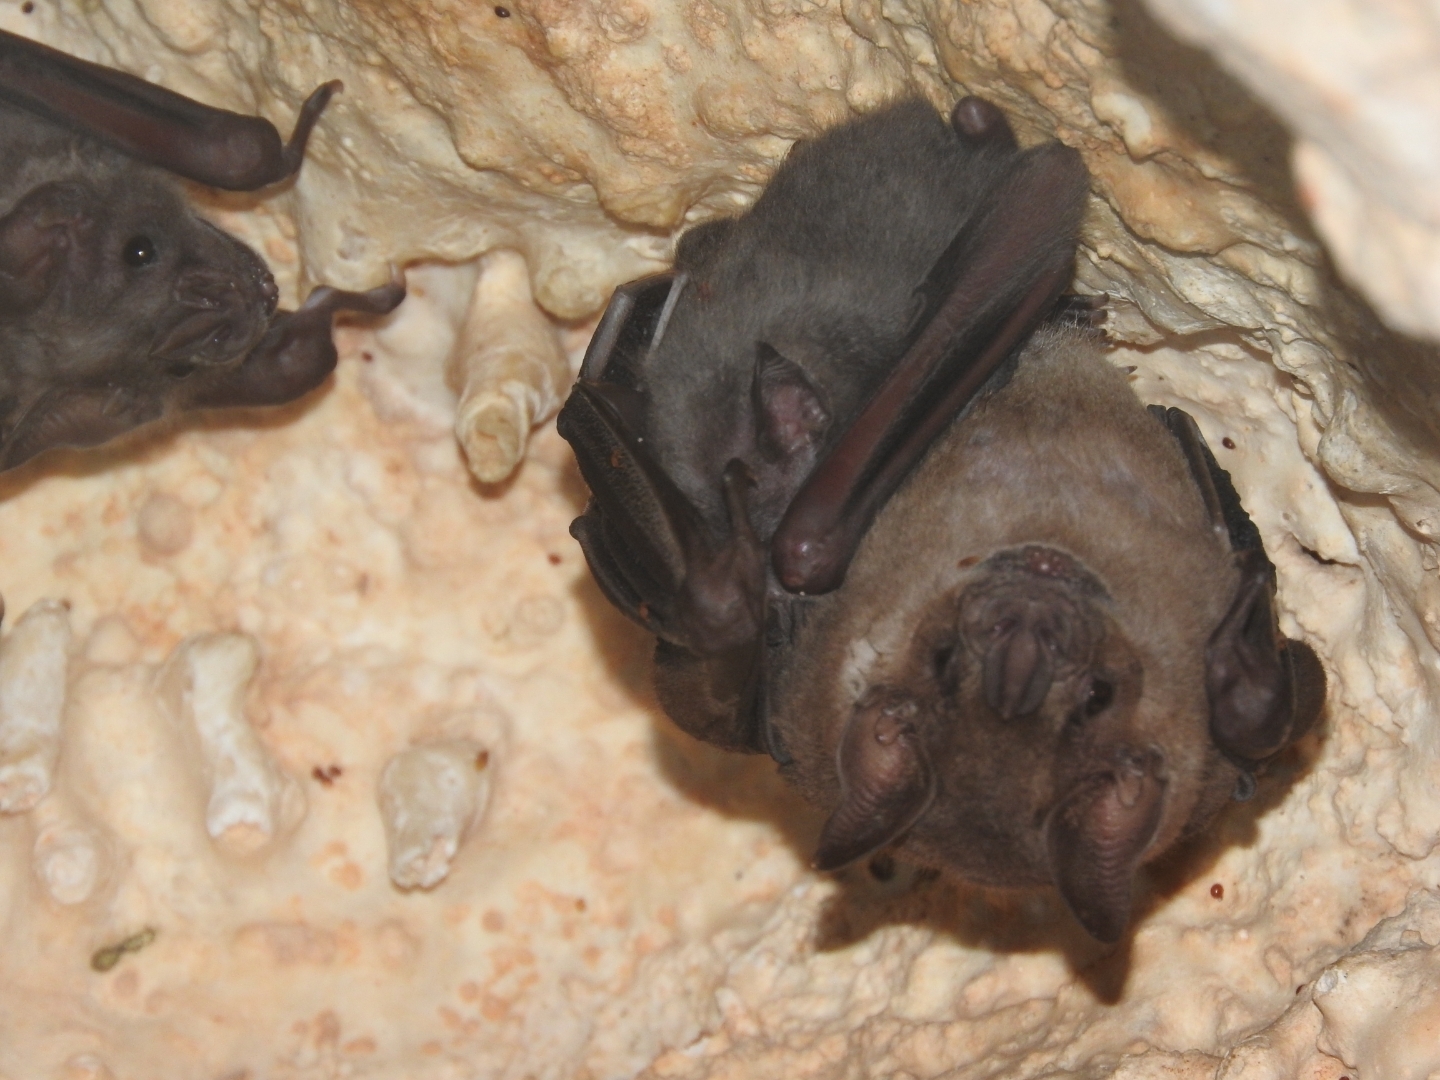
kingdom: Animalia
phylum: Chordata
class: Mammalia
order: Chiroptera
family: Phyllostomidae
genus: Artibeus
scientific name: Artibeus jamaicensis
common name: Jamaican fruit-eating bat
